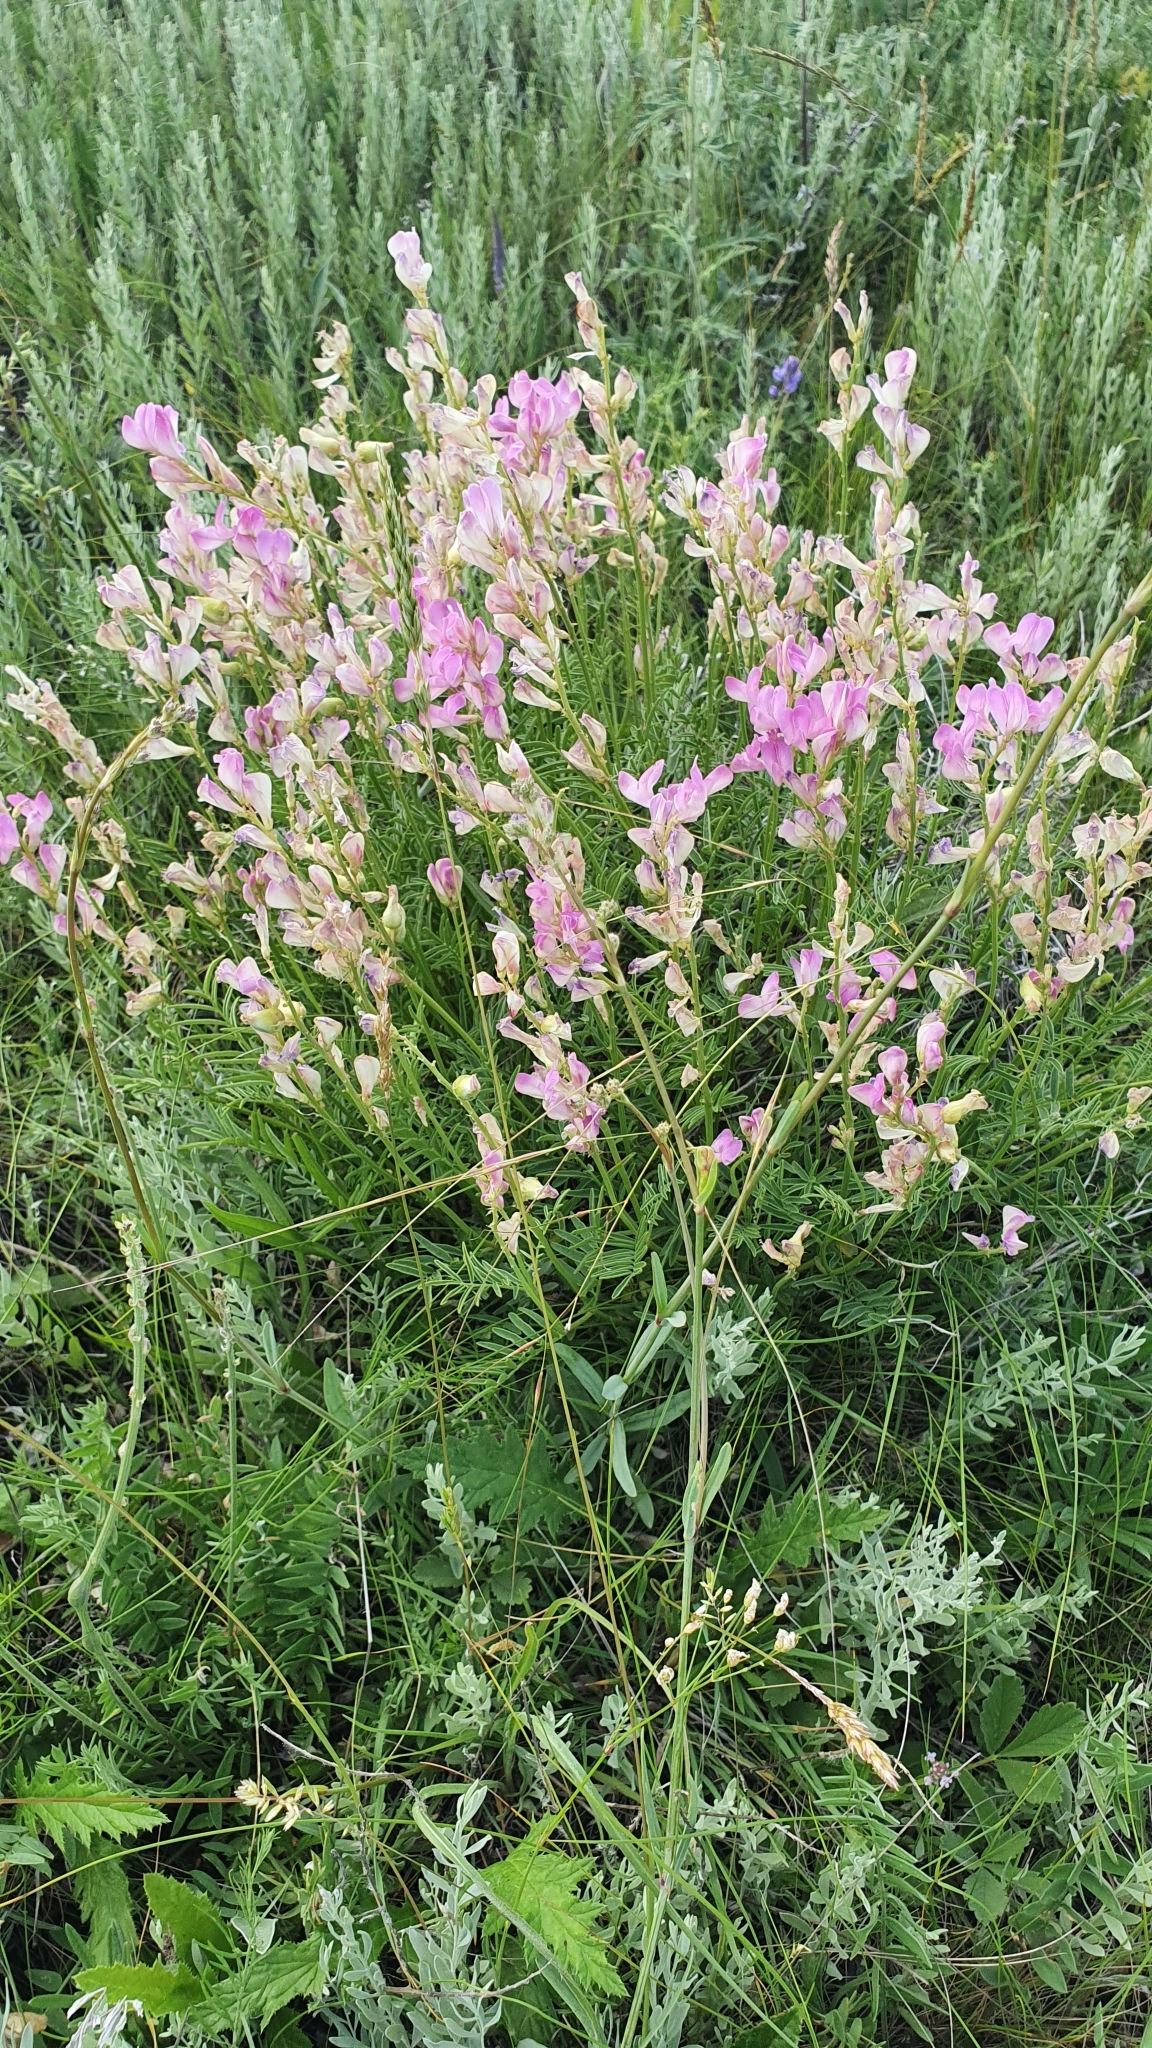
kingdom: Plantae
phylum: Tracheophyta
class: Magnoliopsida
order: Fabales
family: Fabaceae
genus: Hedysarum
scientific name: Hedysarum razoumovianum
